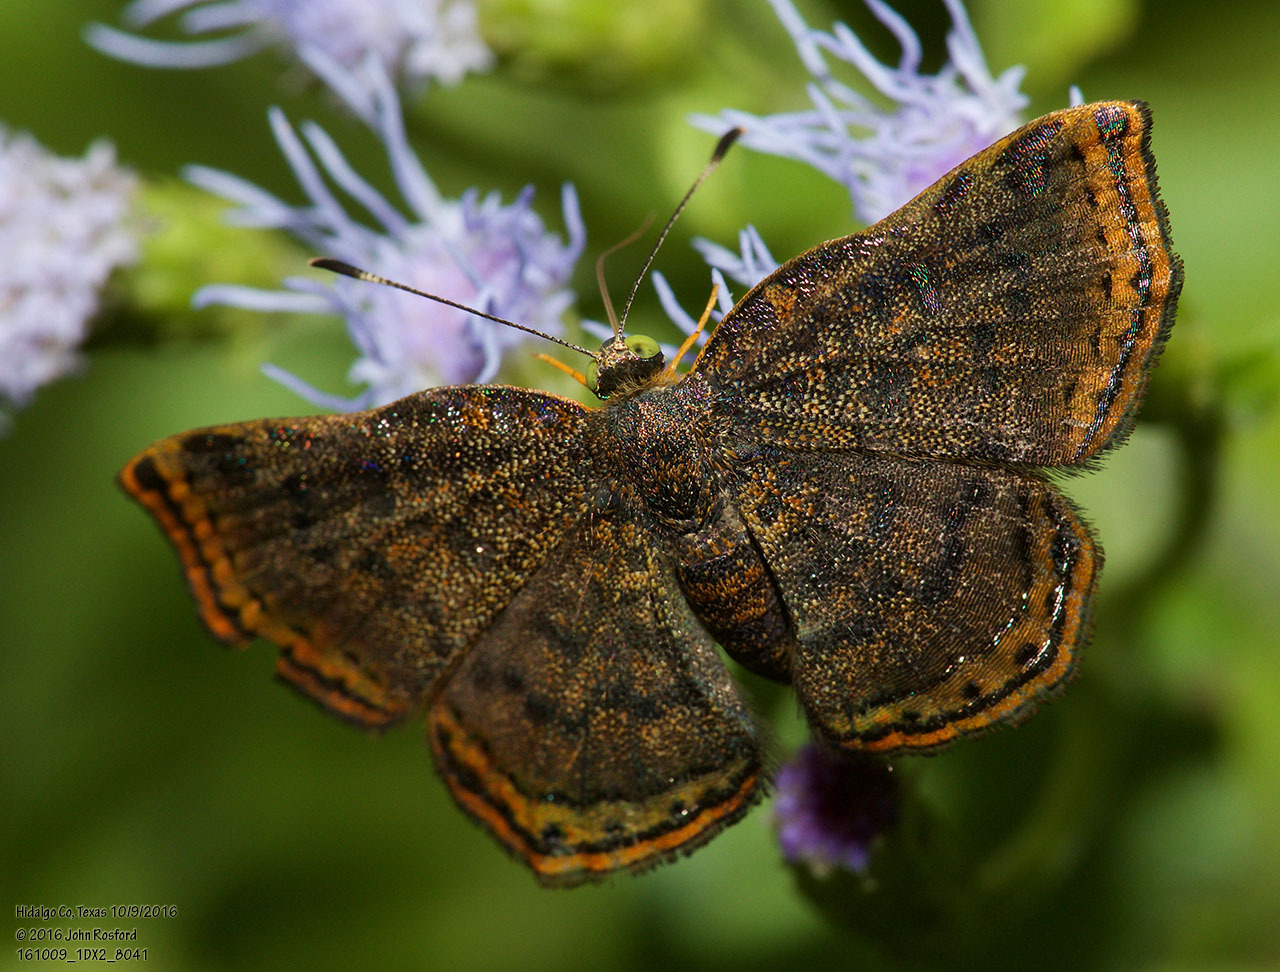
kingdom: Animalia
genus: Caria
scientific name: Caria ino
